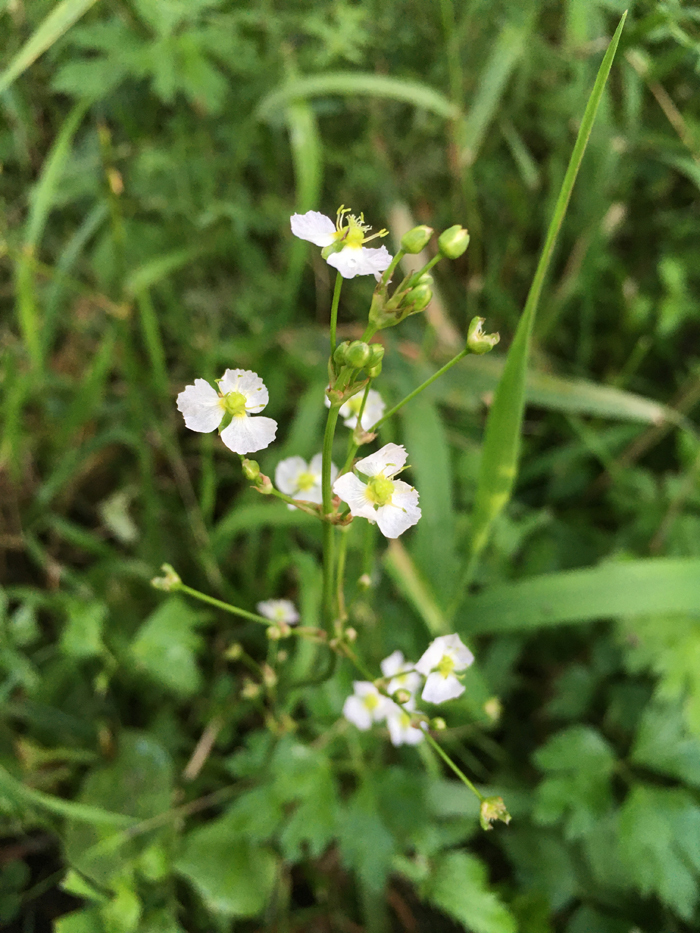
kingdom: Plantae
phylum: Tracheophyta
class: Liliopsida
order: Alismatales
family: Alismataceae
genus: Alisma
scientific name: Alisma plantago-aquatica
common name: Water-plantain
